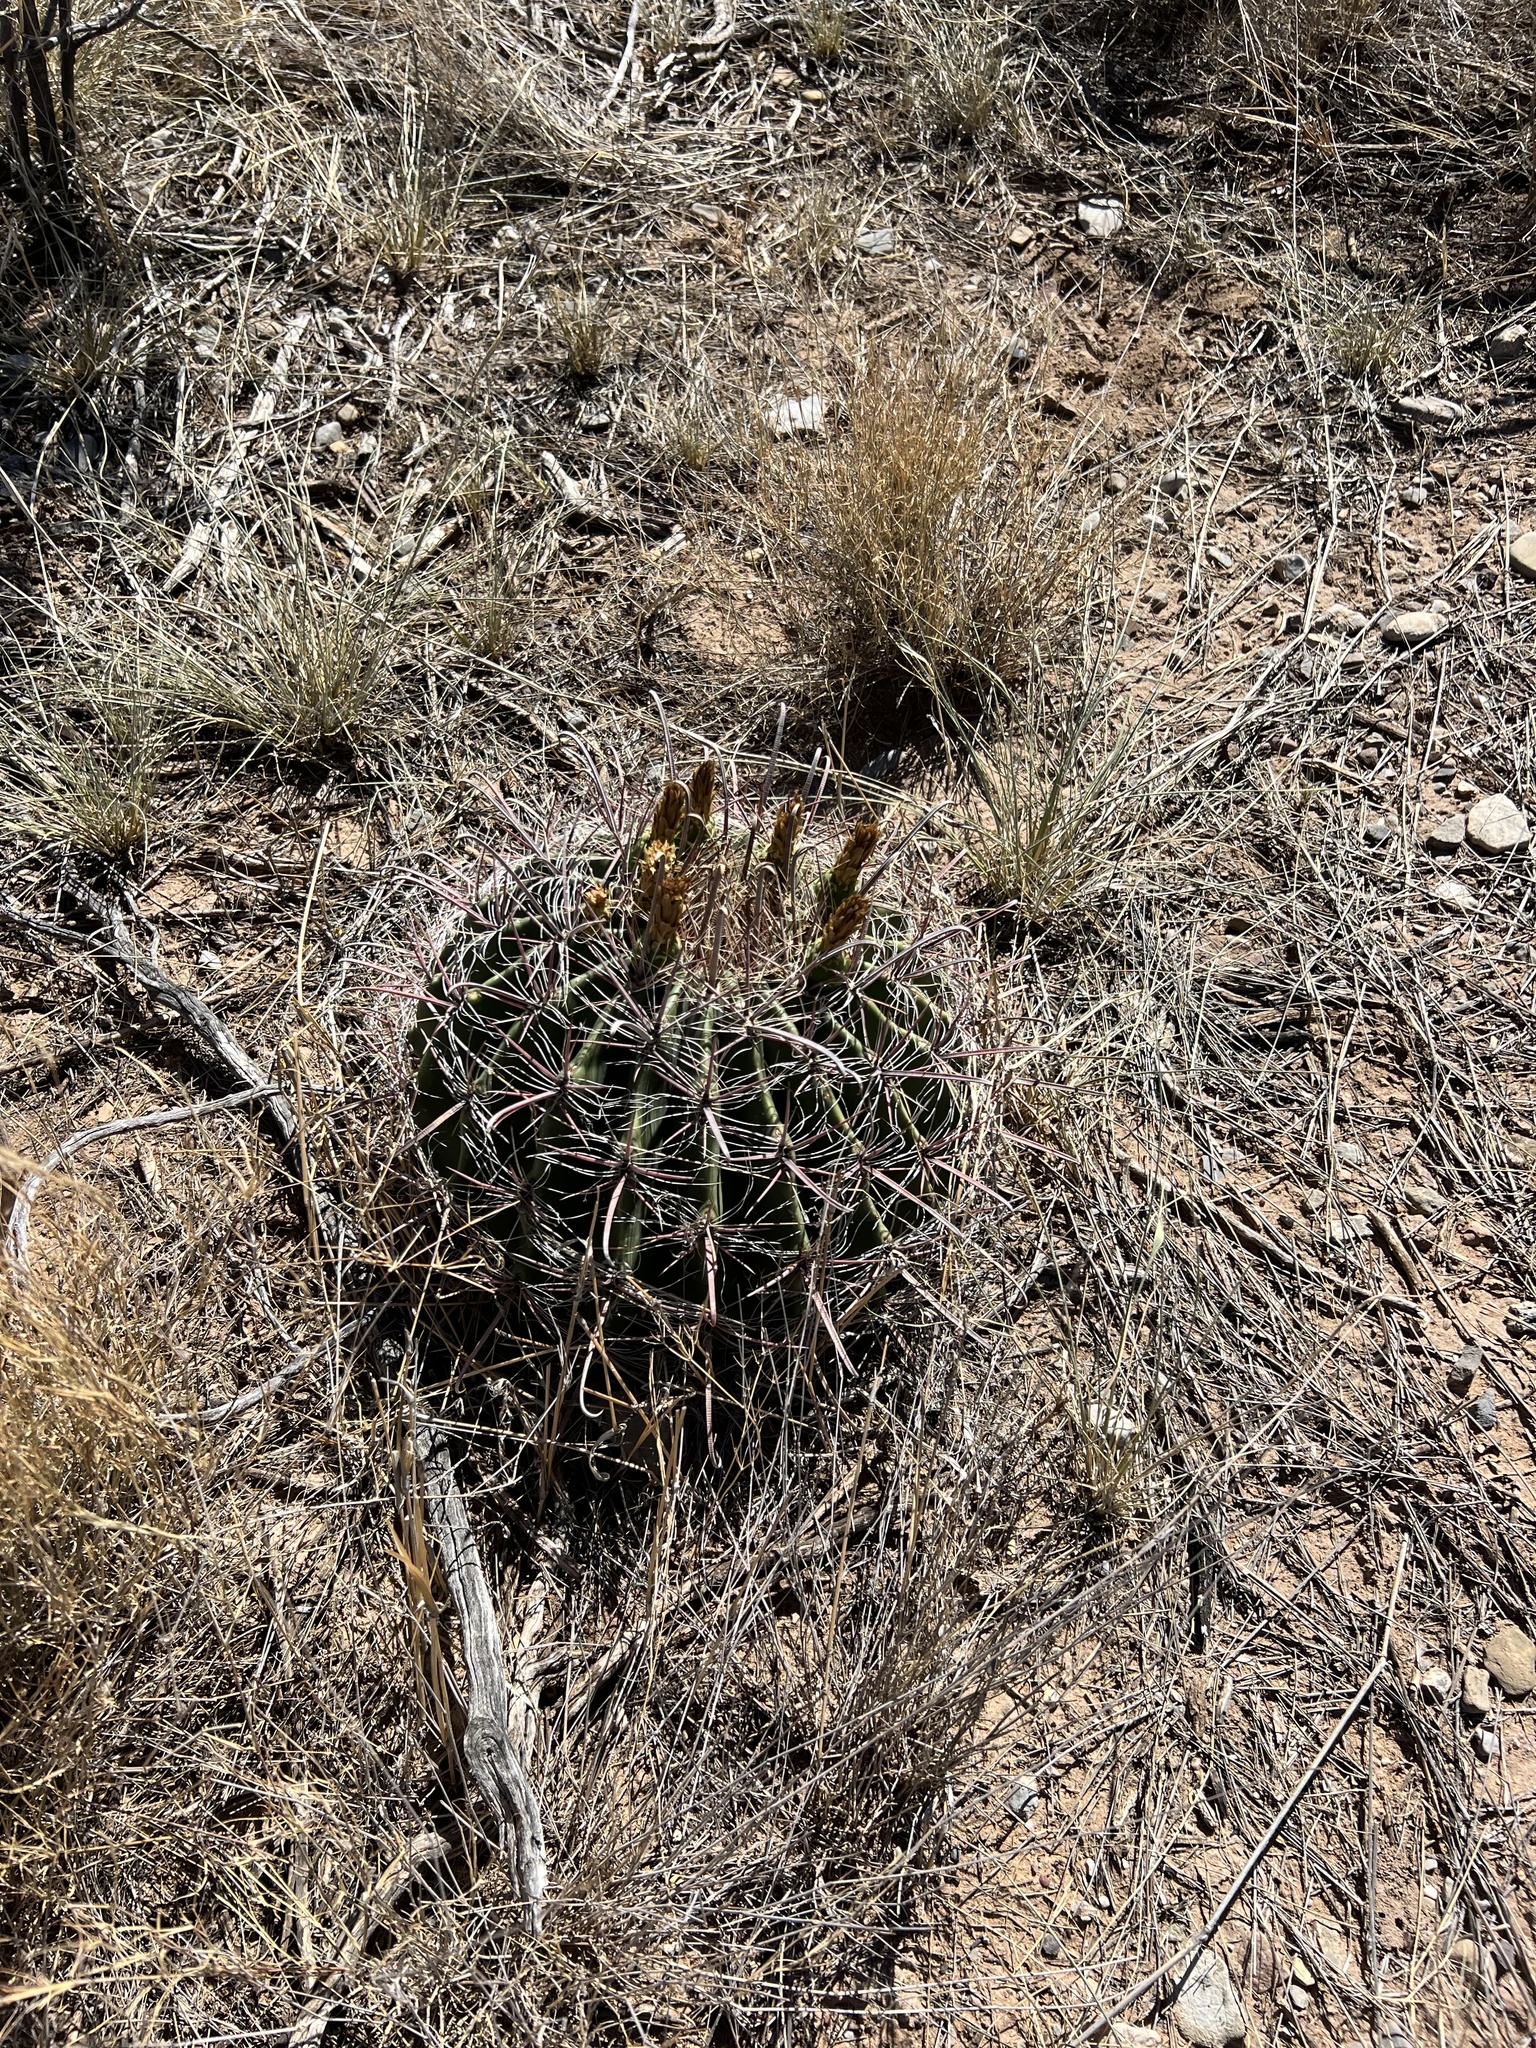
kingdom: Plantae
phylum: Tracheophyta
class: Magnoliopsida
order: Caryophyllales
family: Cactaceae
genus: Ferocactus
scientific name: Ferocactus wislizeni
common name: Candy barrel cactus
